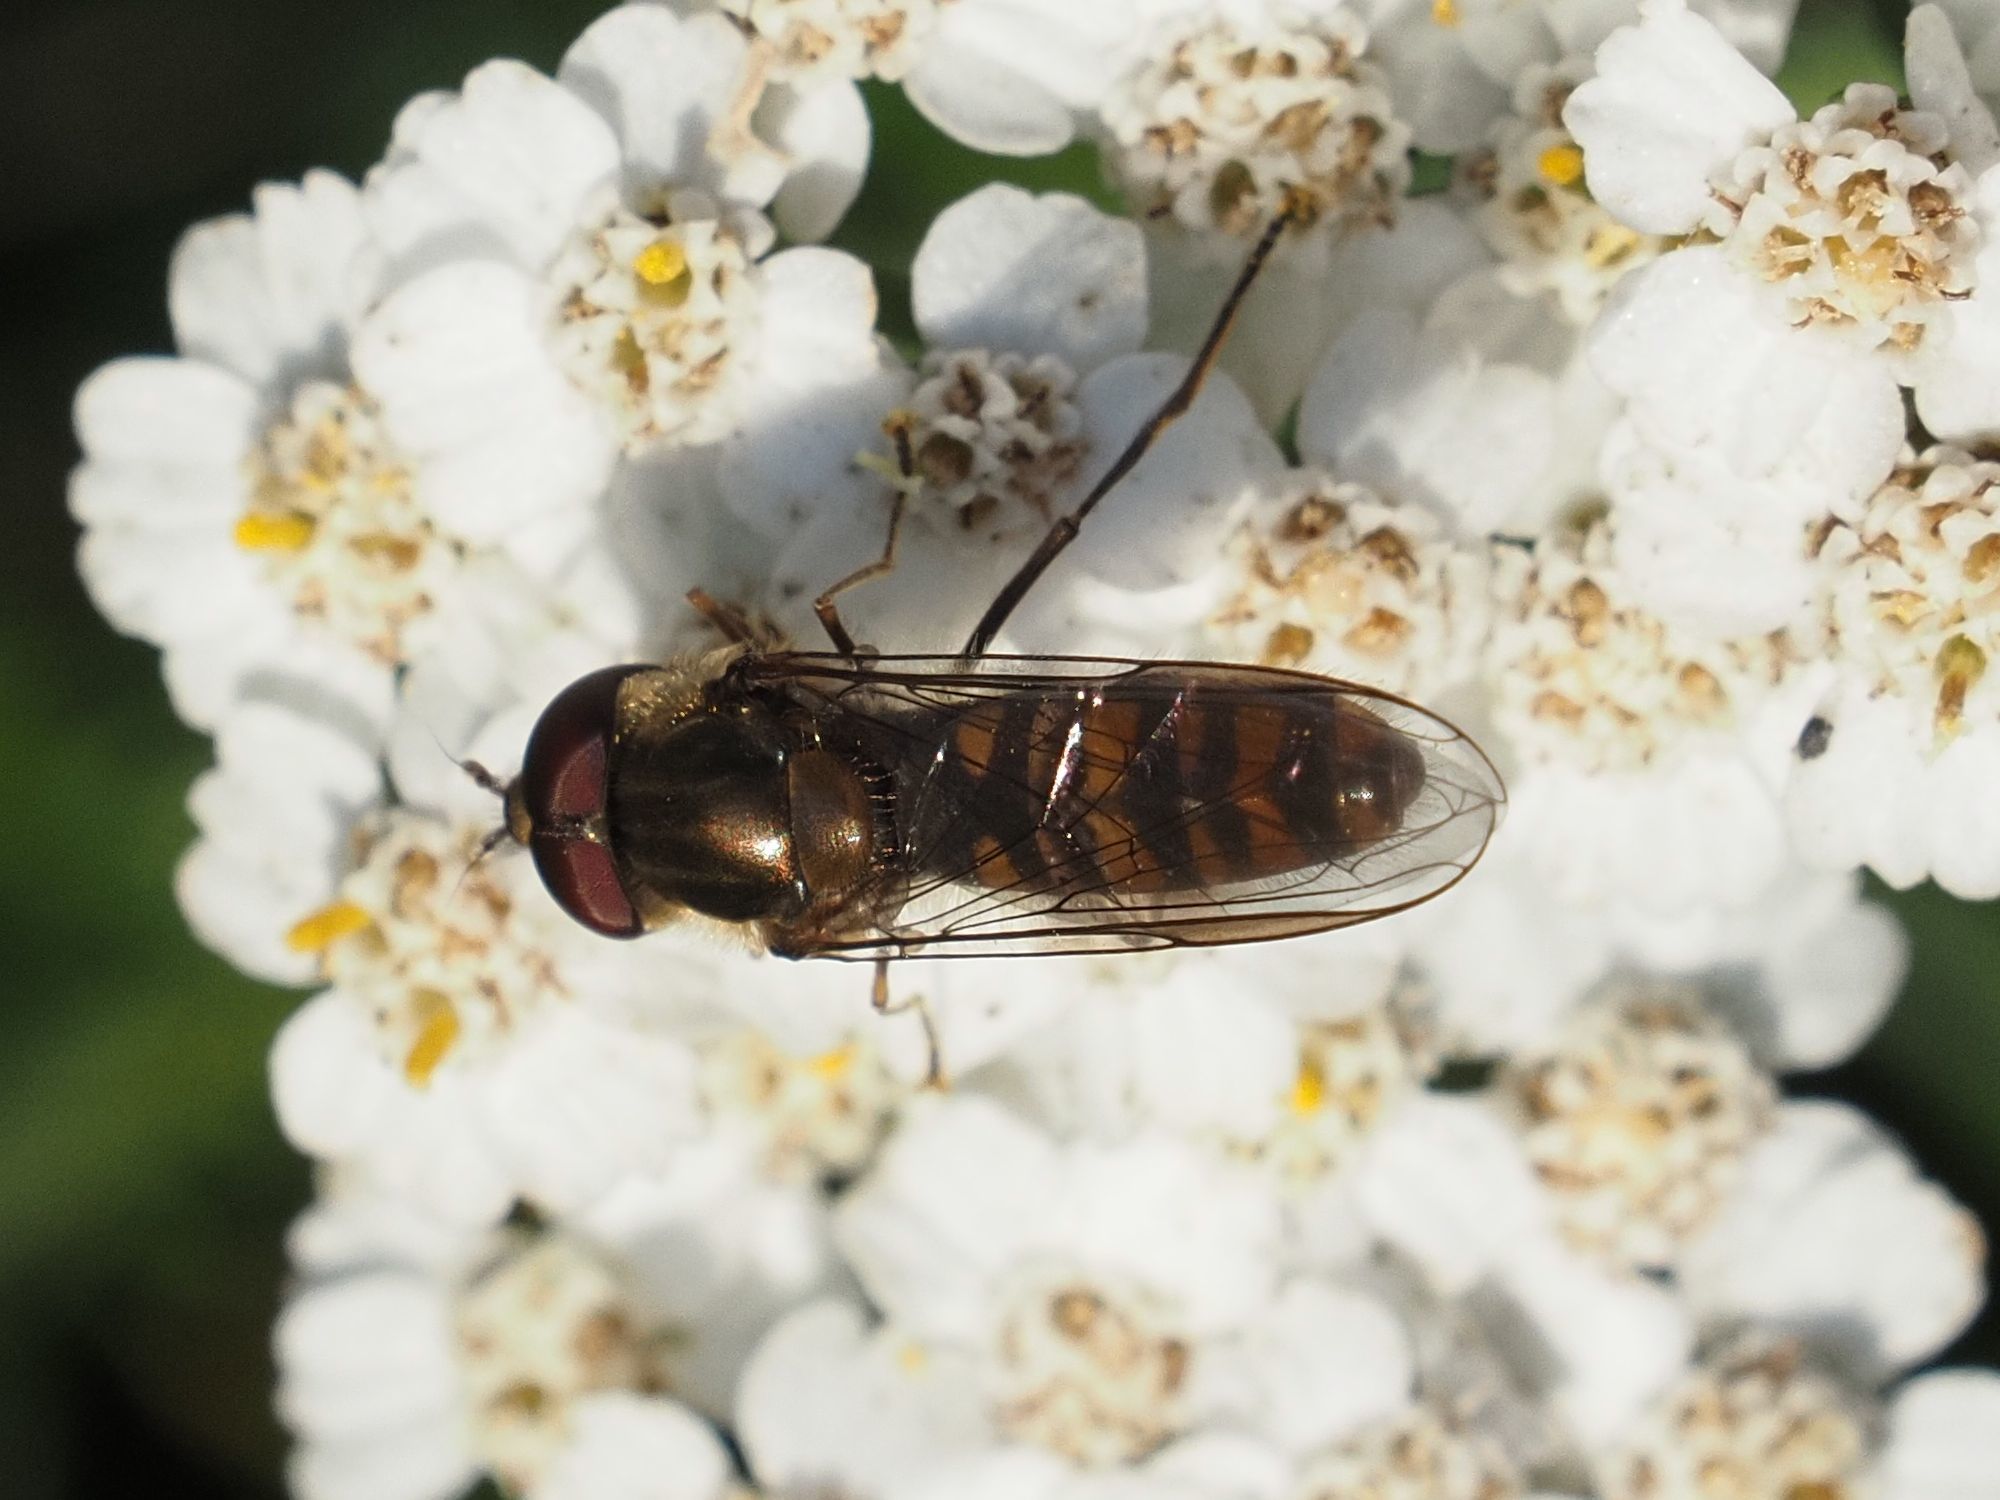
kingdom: Animalia
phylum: Arthropoda
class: Insecta
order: Diptera
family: Syrphidae
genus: Episyrphus
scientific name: Episyrphus balteatus
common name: Marmalade hoverfly
